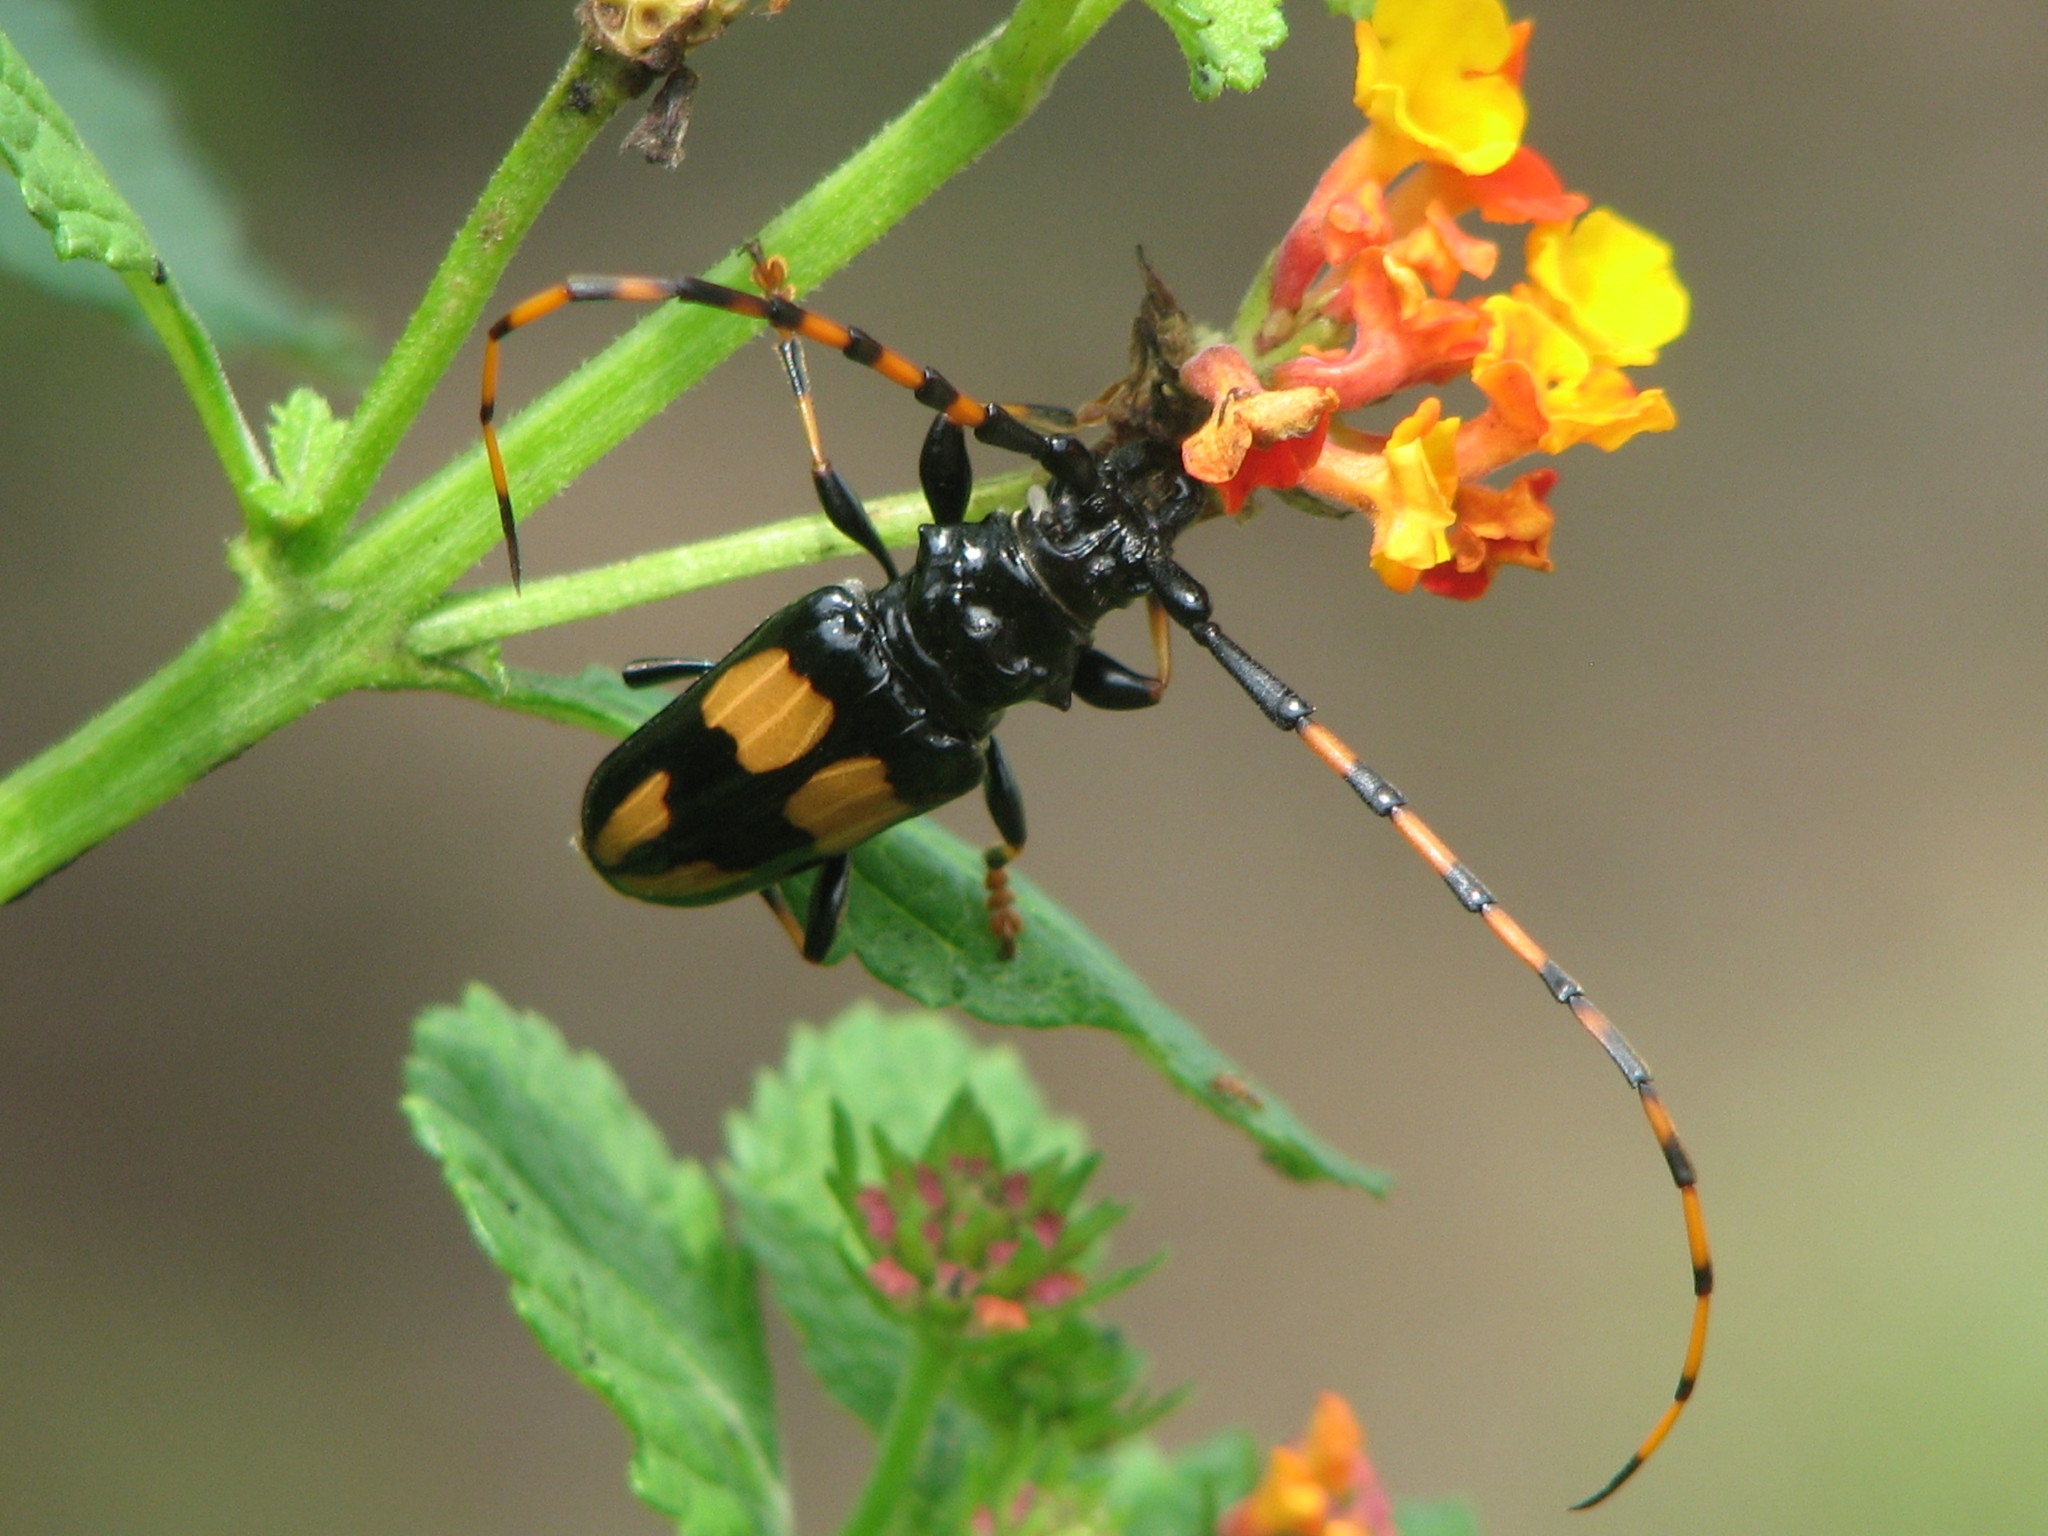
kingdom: Animalia
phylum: Arthropoda
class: Insecta
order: Coleoptera
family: Cerambycidae
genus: Trachyderes
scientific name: Trachyderes mandibularis
